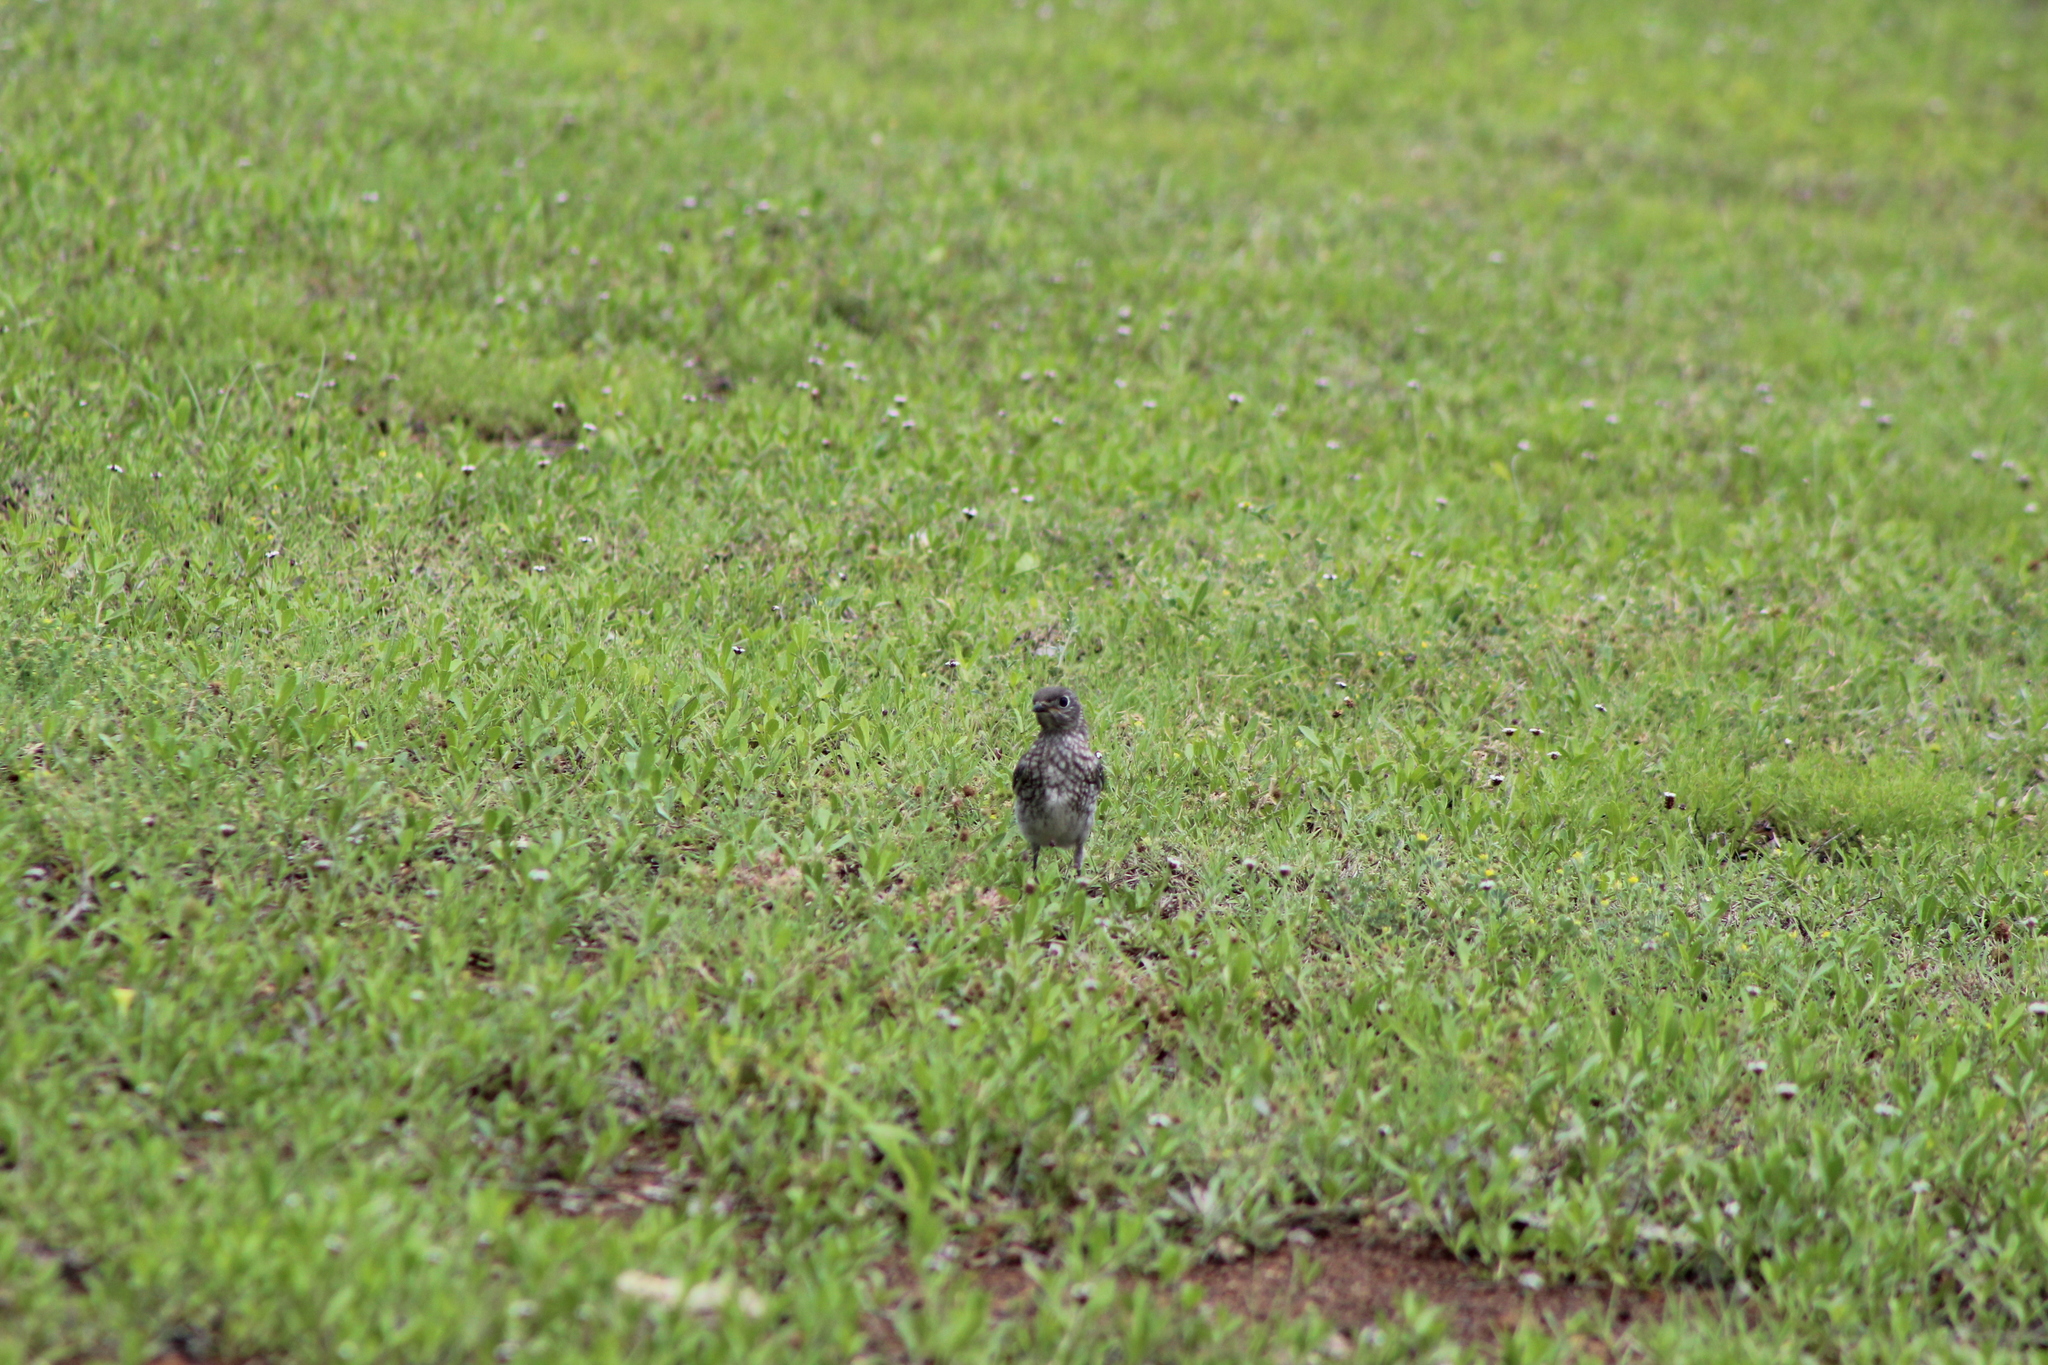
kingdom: Animalia
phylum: Chordata
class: Aves
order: Passeriformes
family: Turdidae
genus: Sialia
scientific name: Sialia sialis
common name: Eastern bluebird
